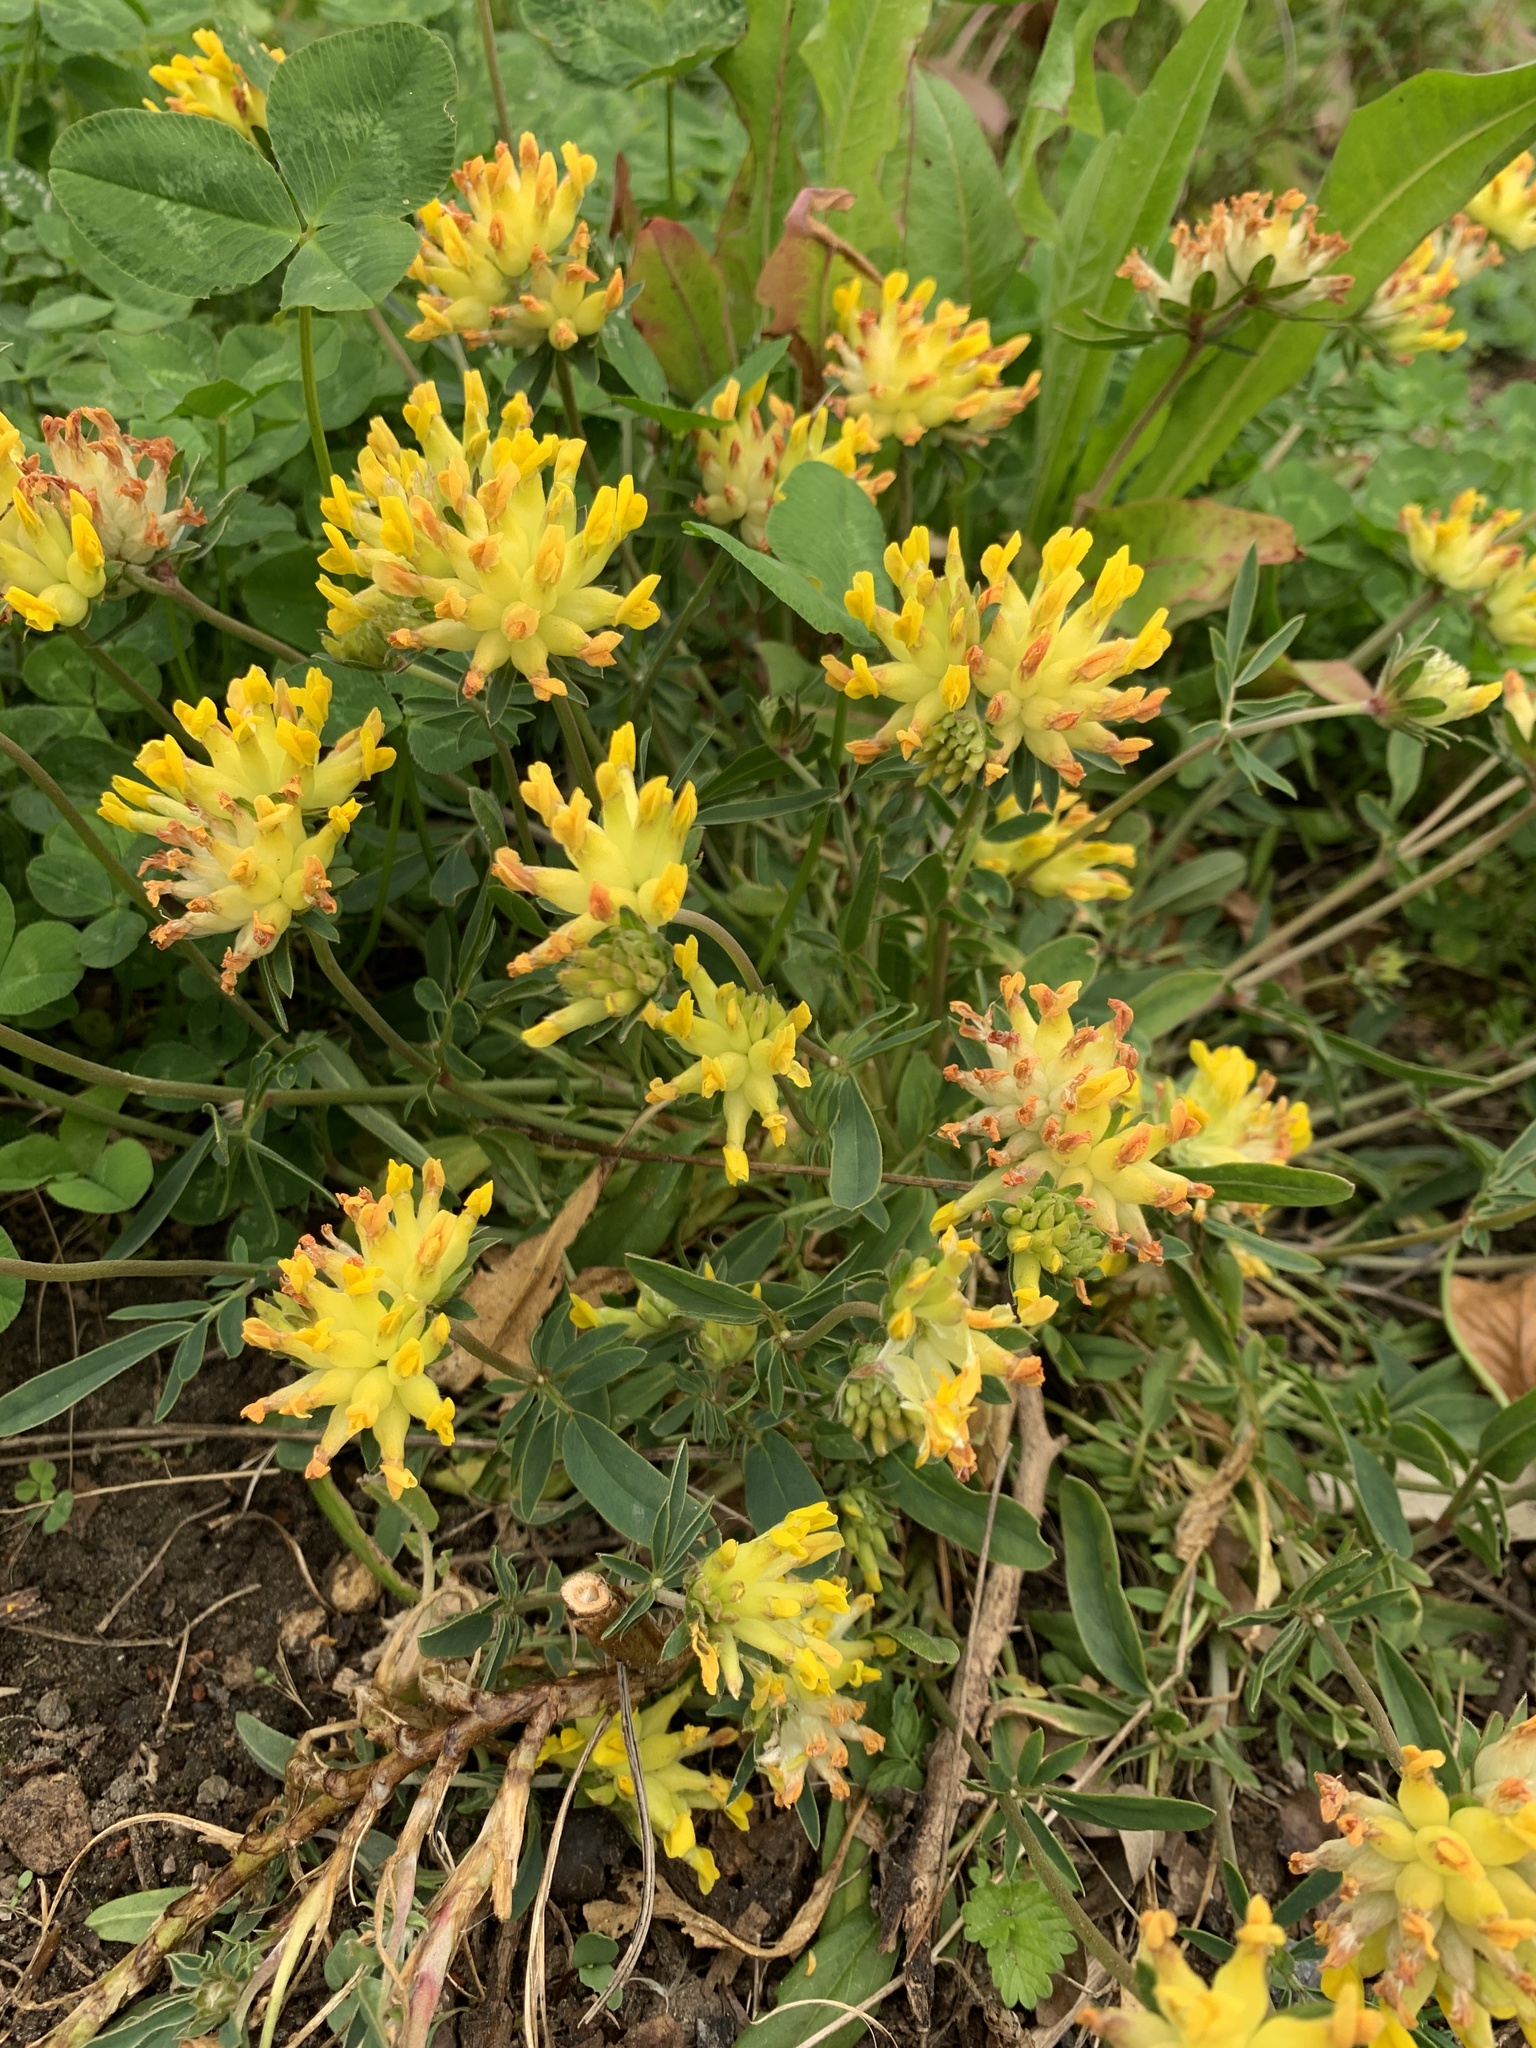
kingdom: Plantae
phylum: Tracheophyta
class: Magnoliopsida
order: Fabales
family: Fabaceae
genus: Anthyllis
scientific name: Anthyllis vulneraria
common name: Kidney vetch
